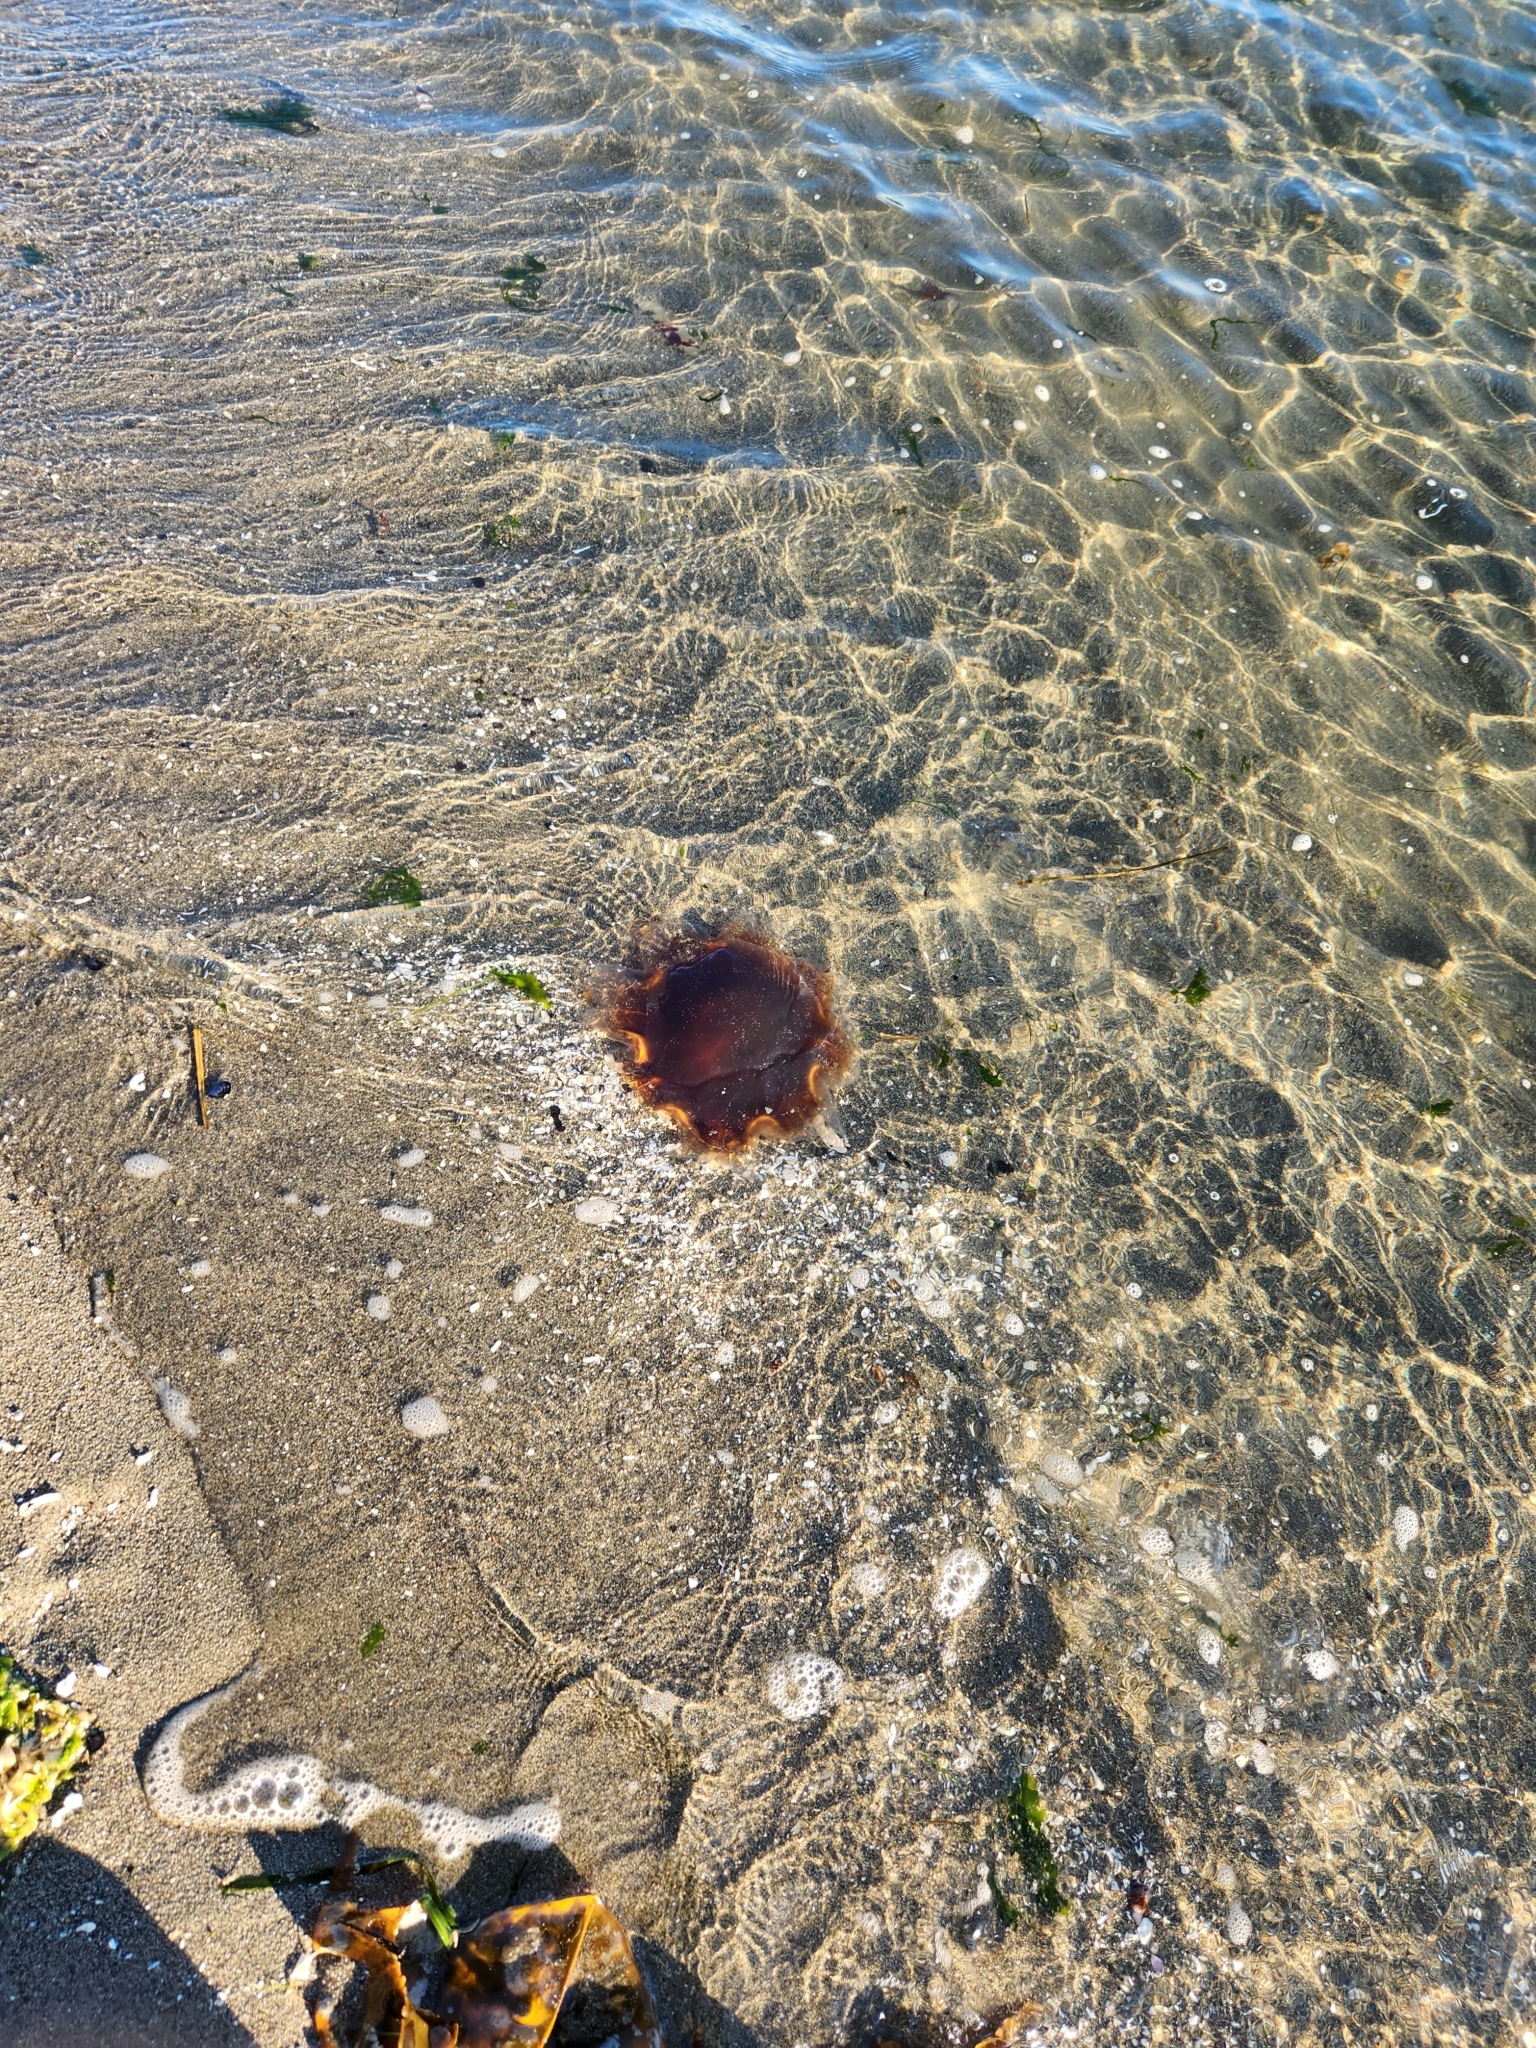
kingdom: Animalia
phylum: Cnidaria
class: Scyphozoa
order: Semaeostomeae
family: Cyaneidae
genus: Cyanea
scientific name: Cyanea ferruginea
